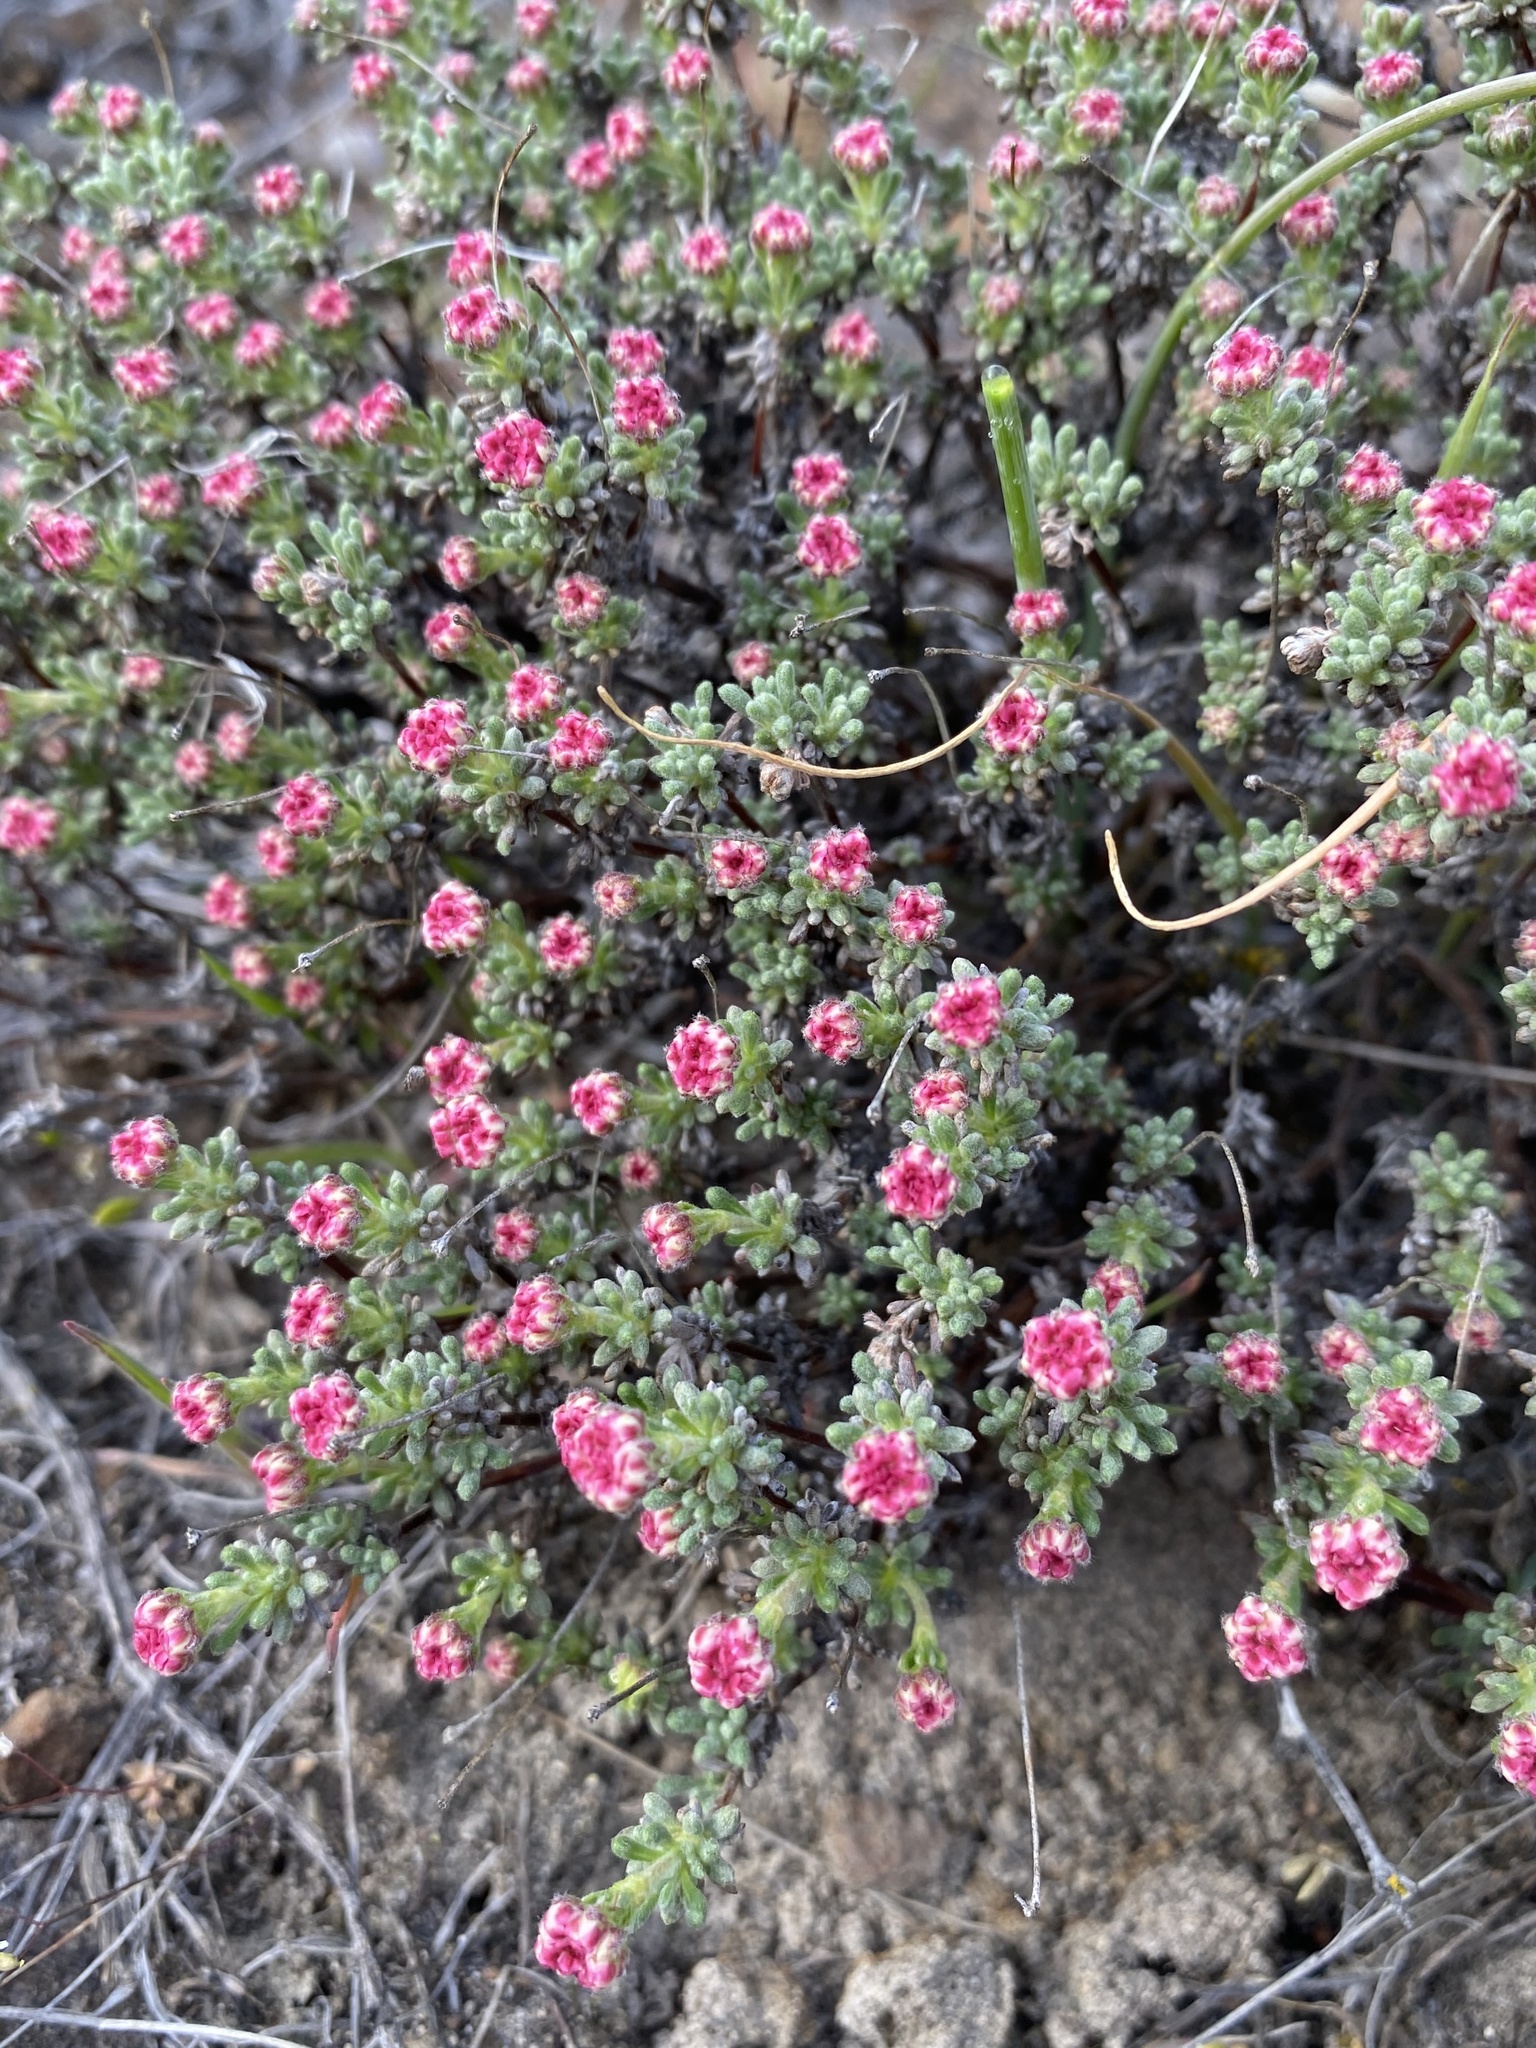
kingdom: Plantae
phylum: Tracheophyta
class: Magnoliopsida
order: Caryophyllales
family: Polygonaceae
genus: Eriogonum
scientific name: Eriogonum thymoides
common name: Thyme-leaf wild buckwheat
